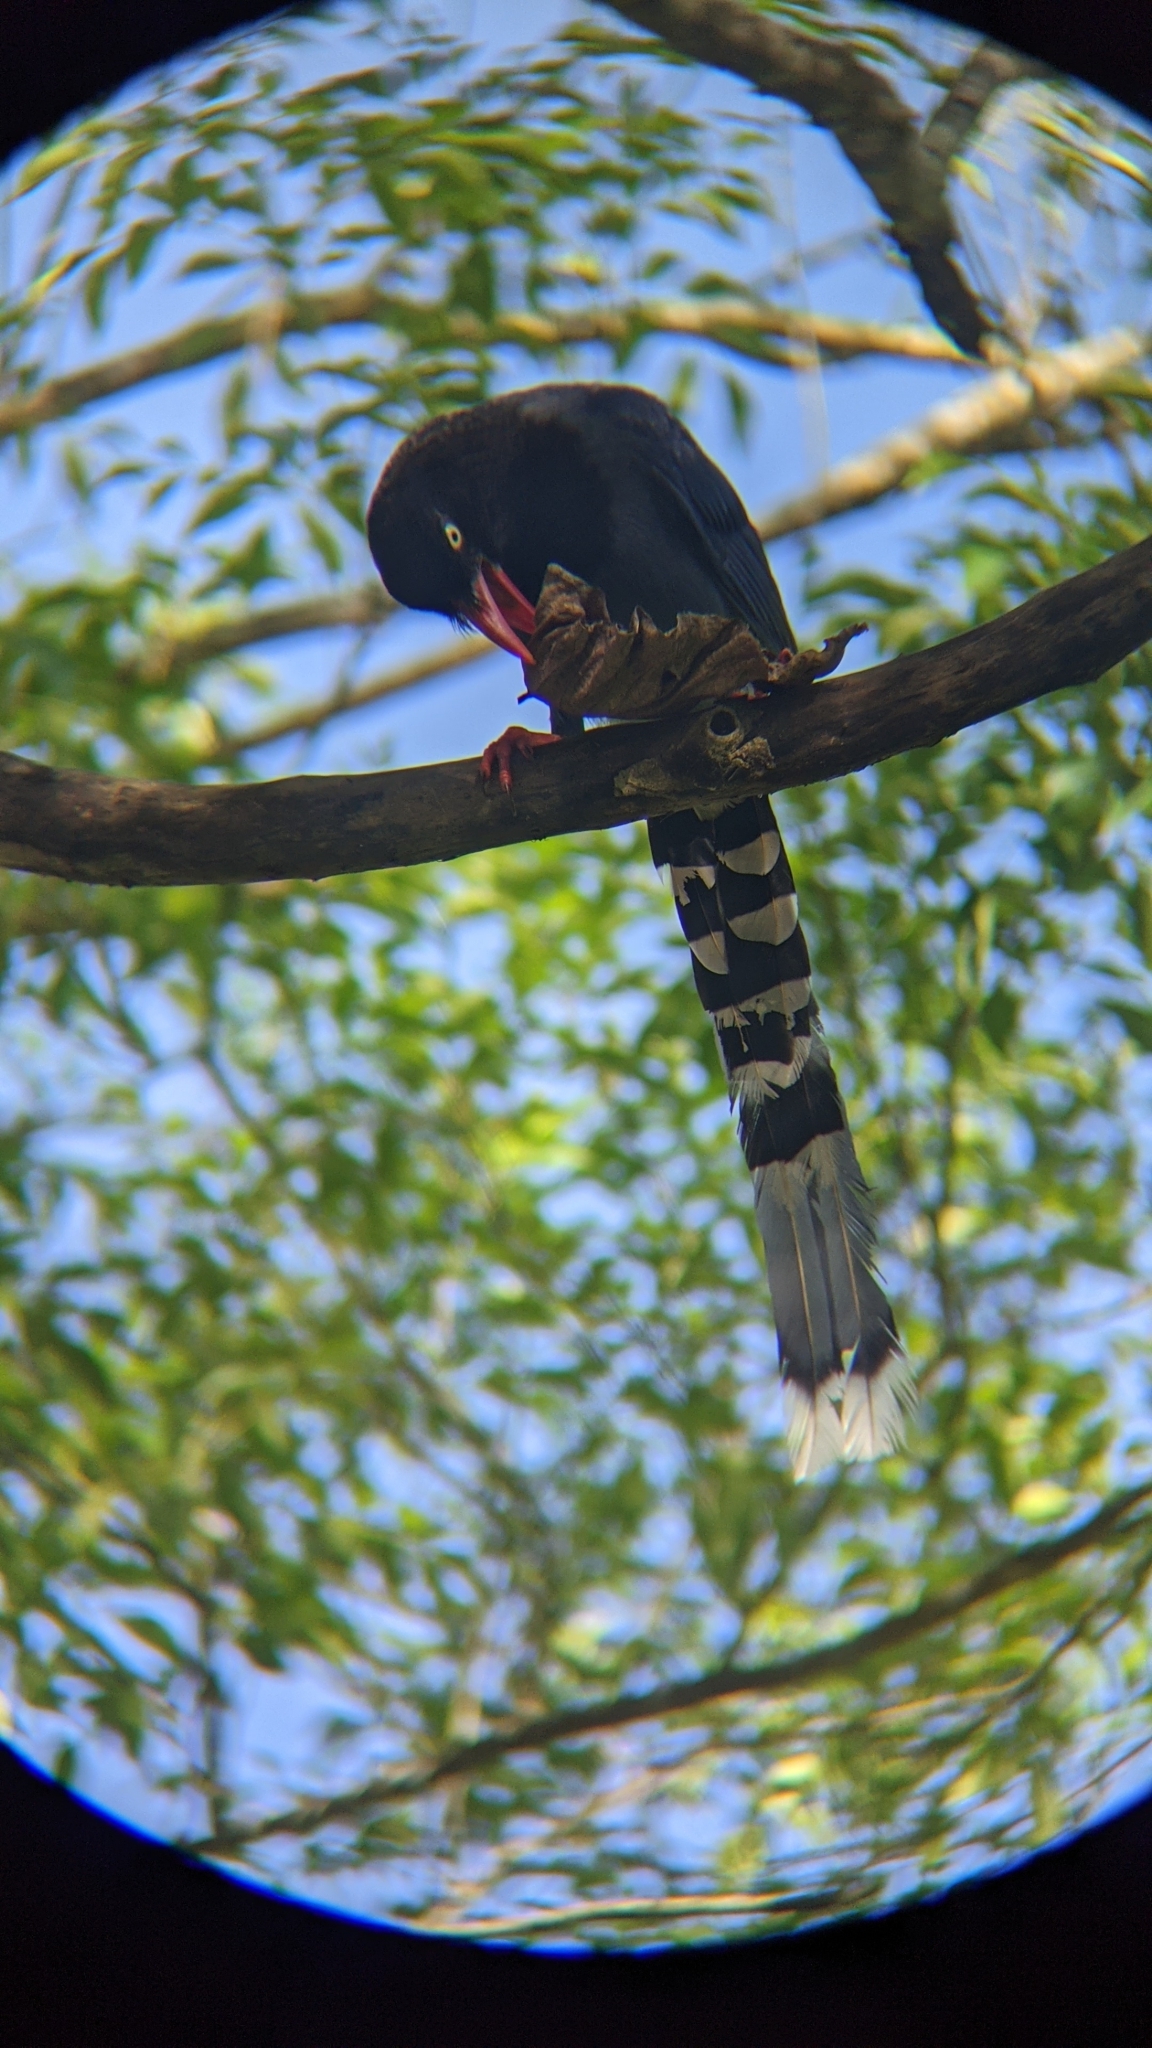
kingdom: Animalia
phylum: Chordata
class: Aves
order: Passeriformes
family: Corvidae
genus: Urocissa
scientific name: Urocissa caerulea
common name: Taiwan blue magpie
